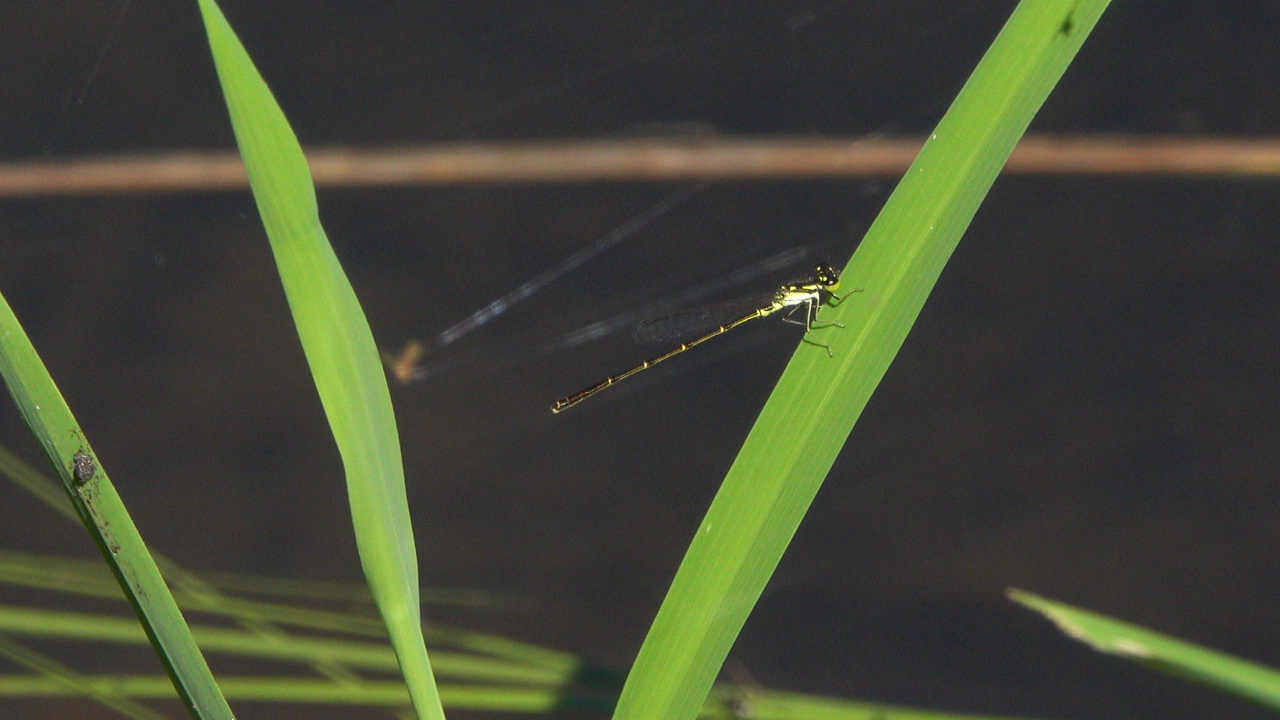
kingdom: Animalia
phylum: Arthropoda
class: Insecta
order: Odonata
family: Coenagrionidae
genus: Ischnura
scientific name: Ischnura posita
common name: Fragile forktail
